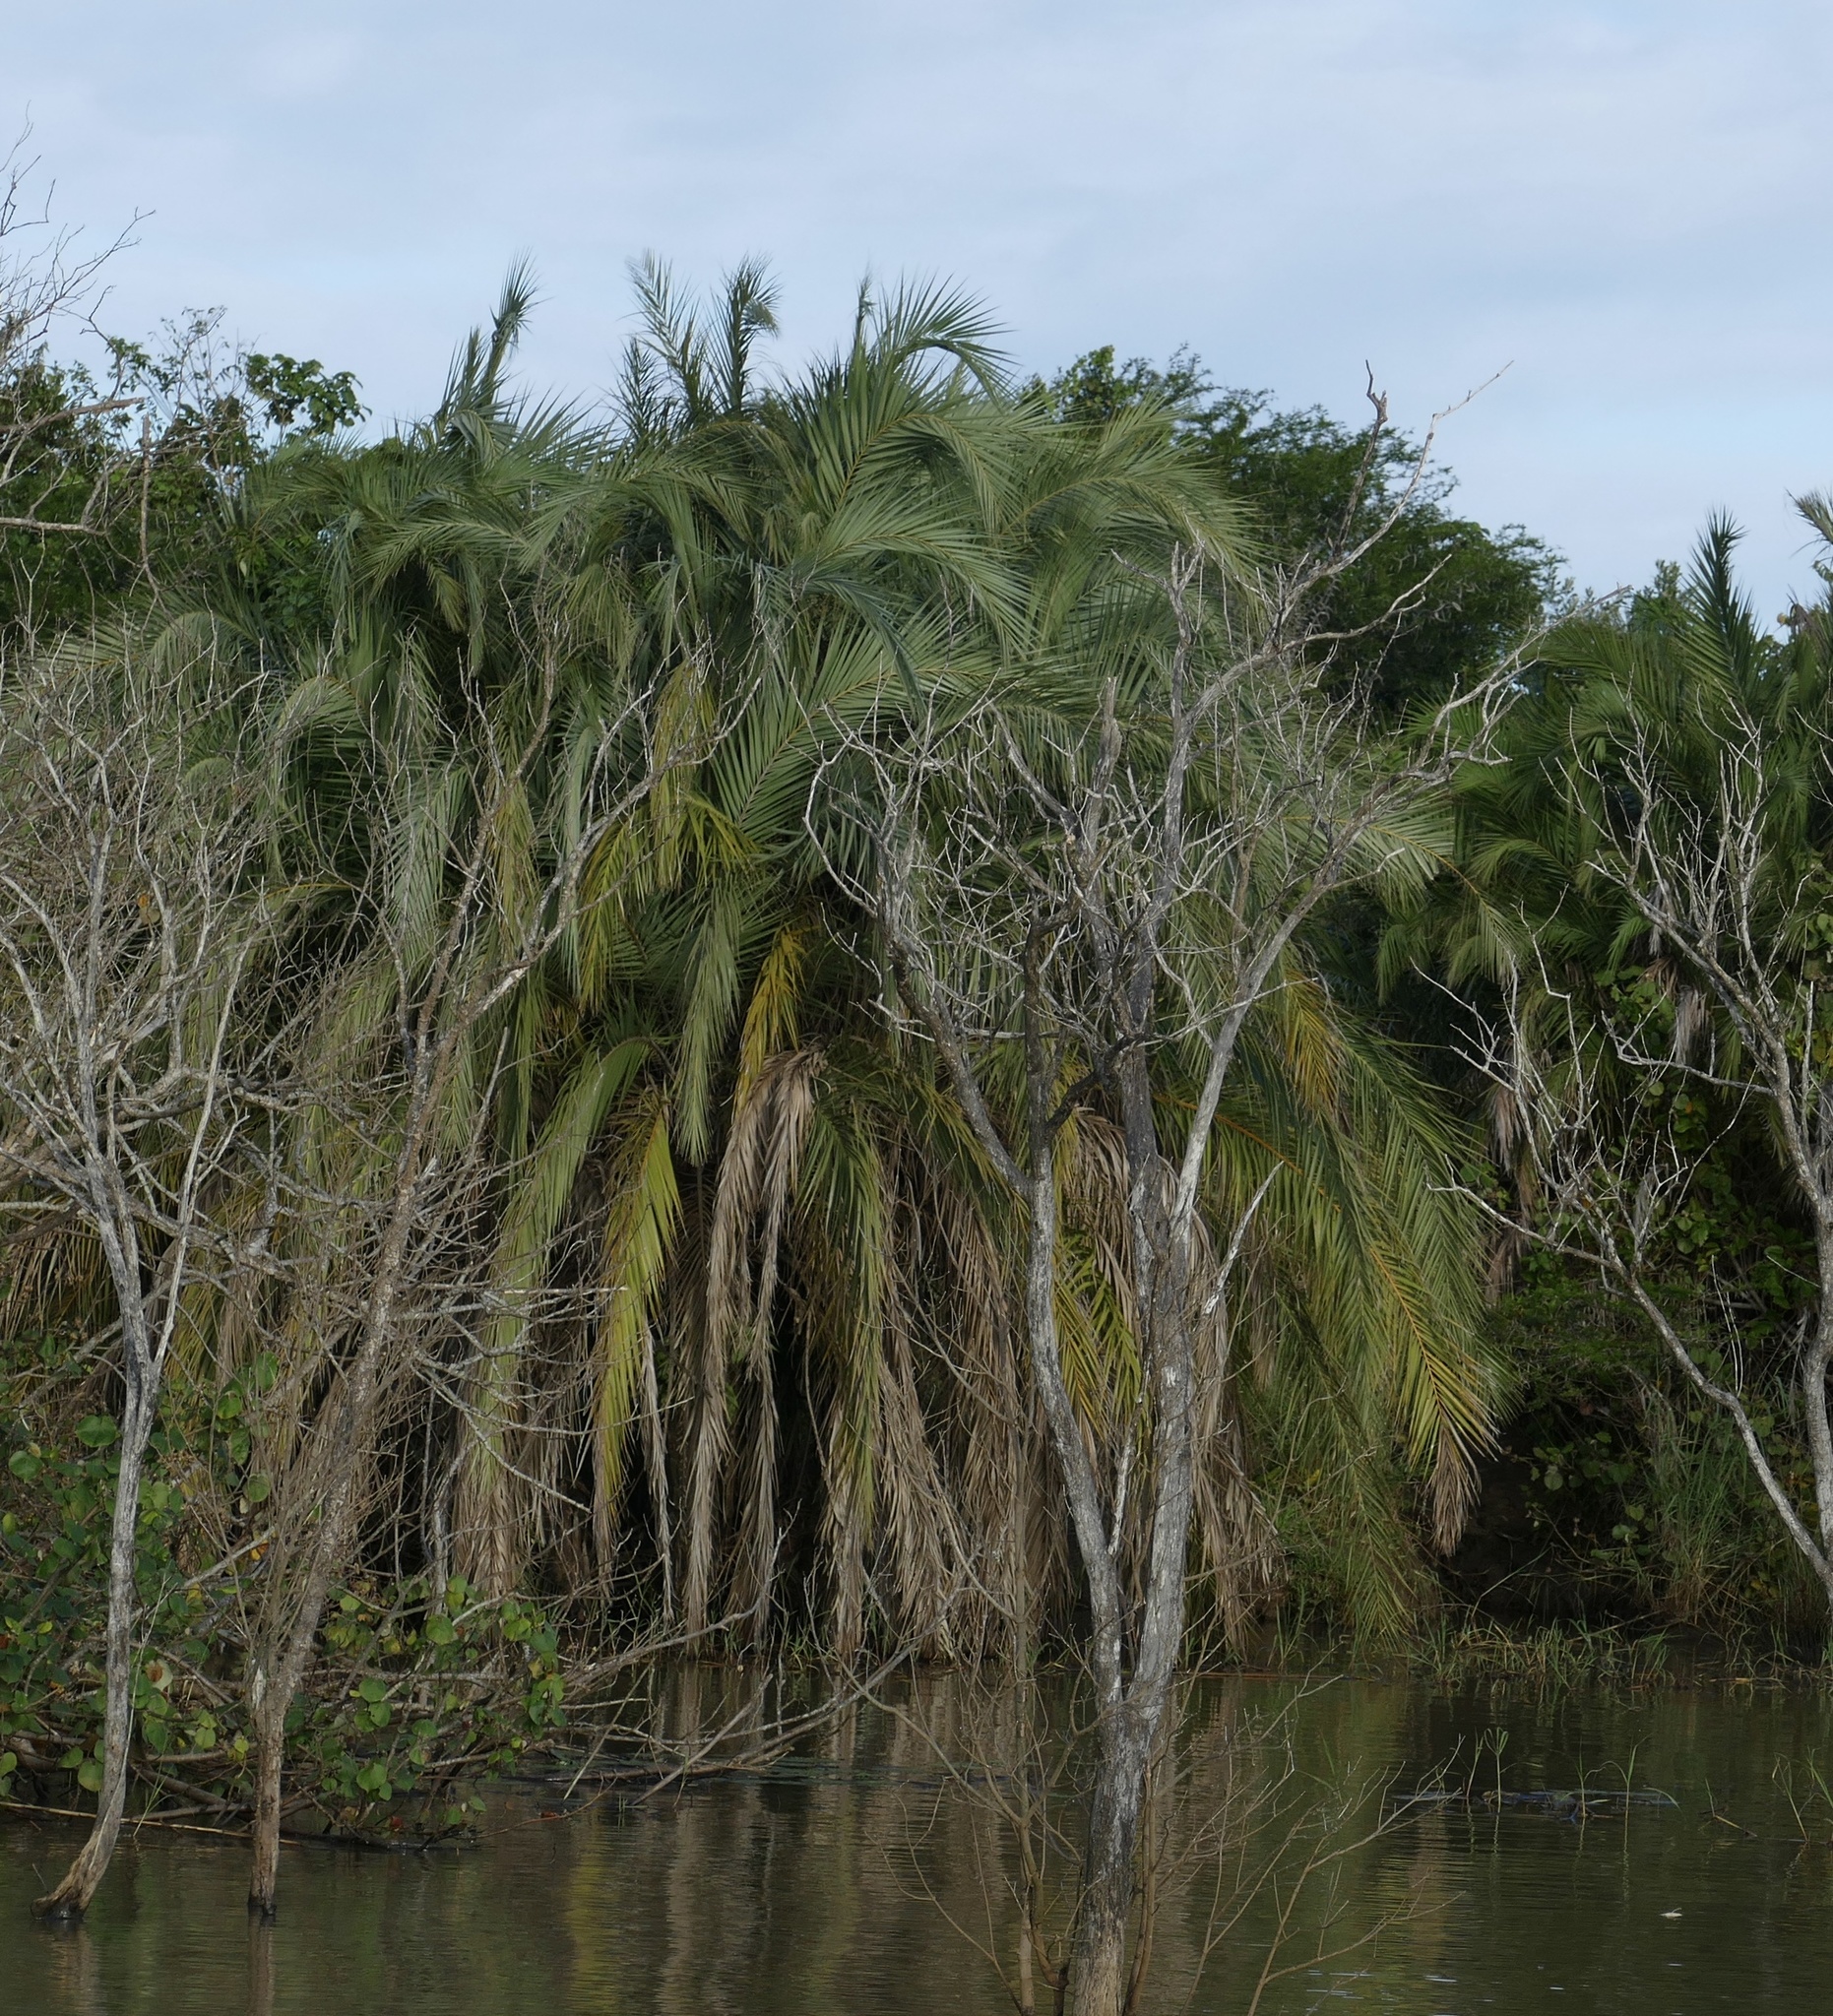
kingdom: Plantae
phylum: Tracheophyta
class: Liliopsida
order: Arecales
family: Arecaceae
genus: Phoenix
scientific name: Phoenix reclinata
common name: Senegal date palm
